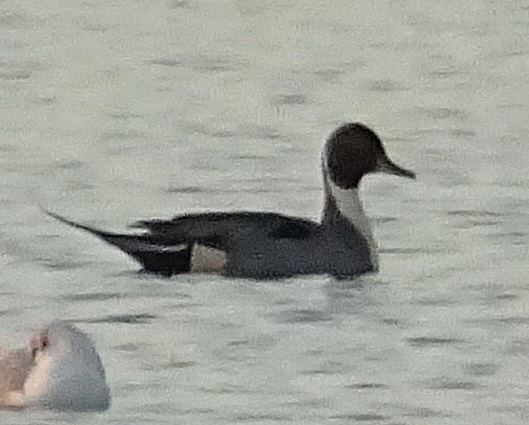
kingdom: Animalia
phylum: Chordata
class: Aves
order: Anseriformes
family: Anatidae
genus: Anas
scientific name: Anas acuta
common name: Northern pintail
